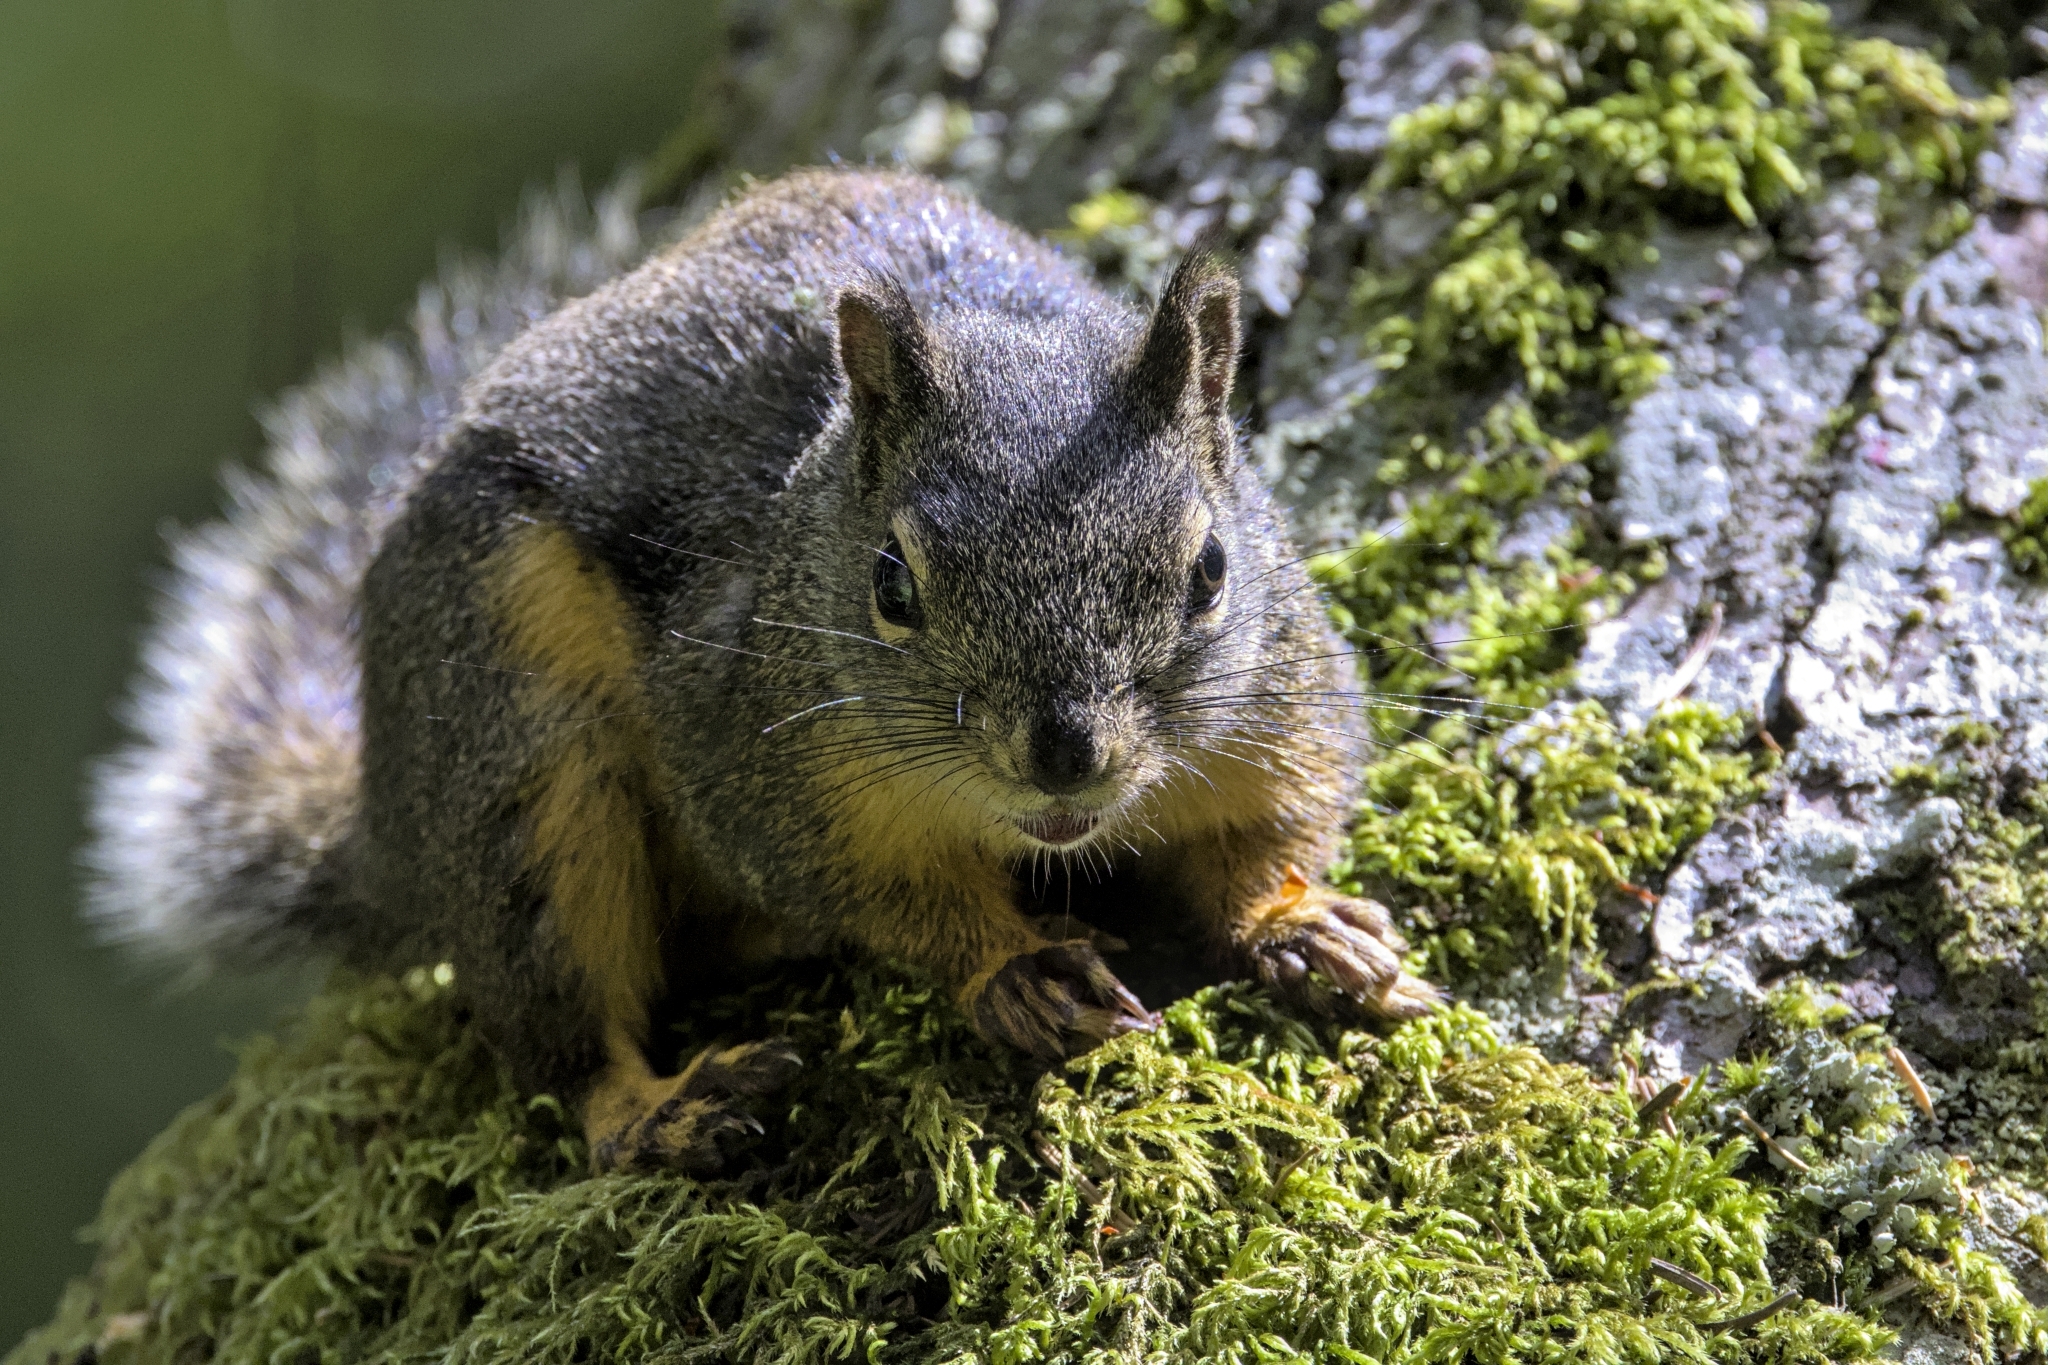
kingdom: Animalia
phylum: Chordata
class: Mammalia
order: Rodentia
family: Sciuridae
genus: Tamiasciurus
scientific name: Tamiasciurus douglasii
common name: Douglas's squirrel
